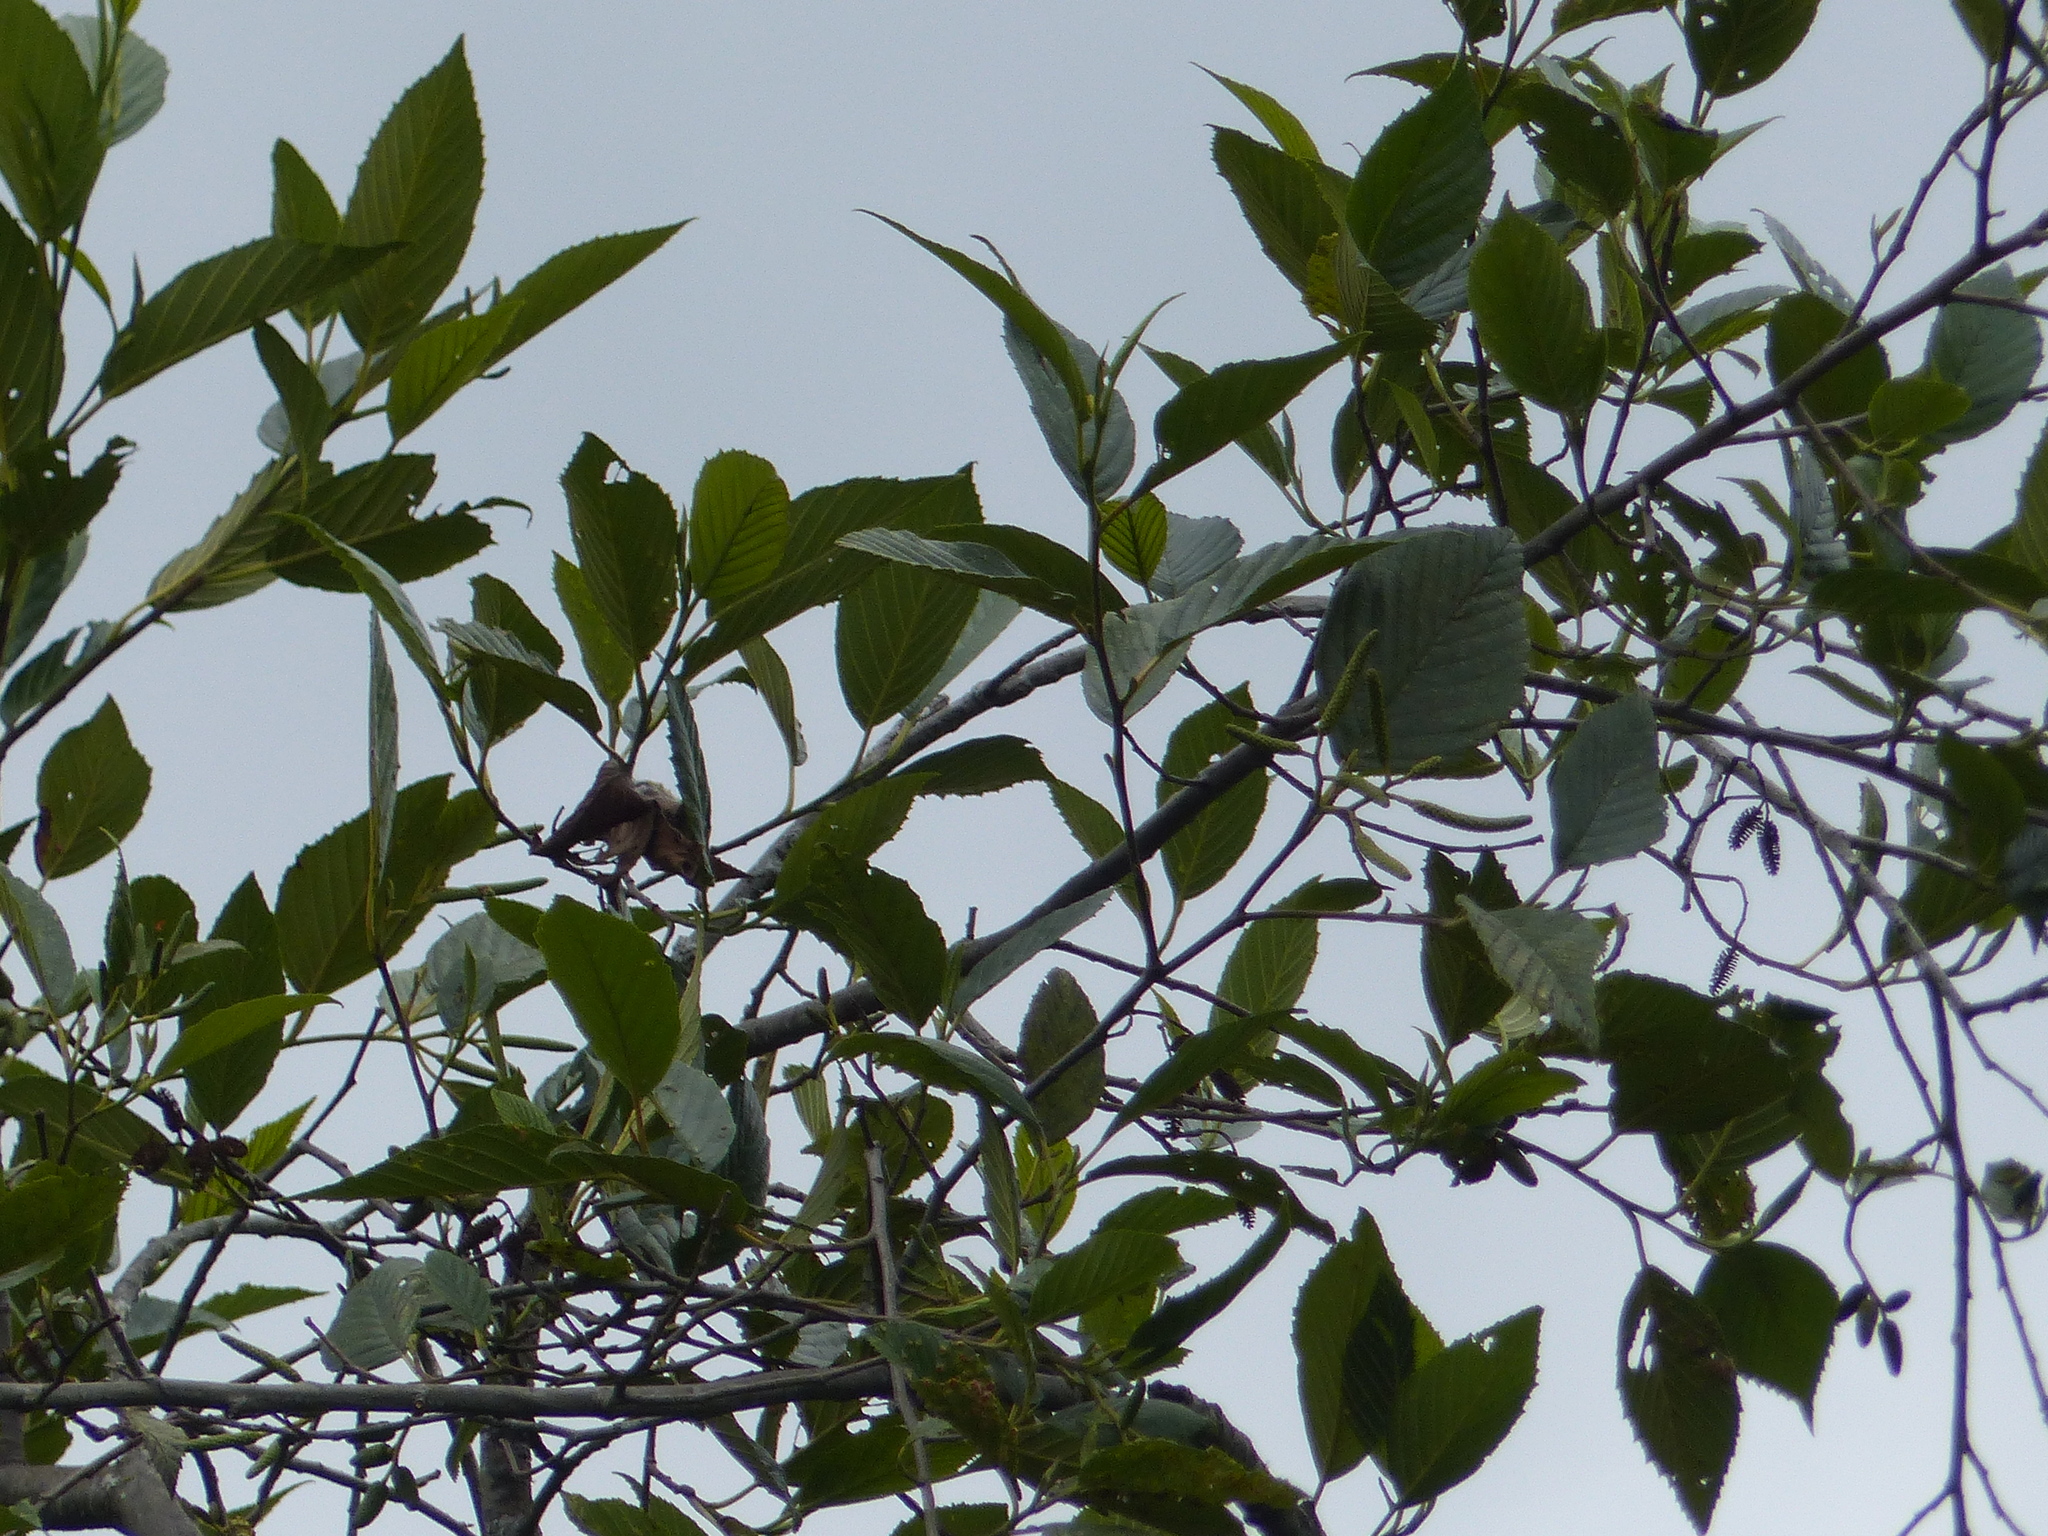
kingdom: Plantae
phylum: Tracheophyta
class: Magnoliopsida
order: Fagales
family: Betulaceae
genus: Alnus
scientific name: Alnus acuminata
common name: Alder
